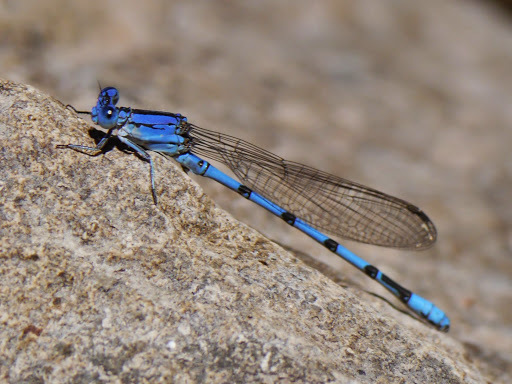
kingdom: Animalia
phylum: Arthropoda
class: Insecta
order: Odonata
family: Coenagrionidae
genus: Argia
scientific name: Argia nahuana
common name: Aztec dancer
